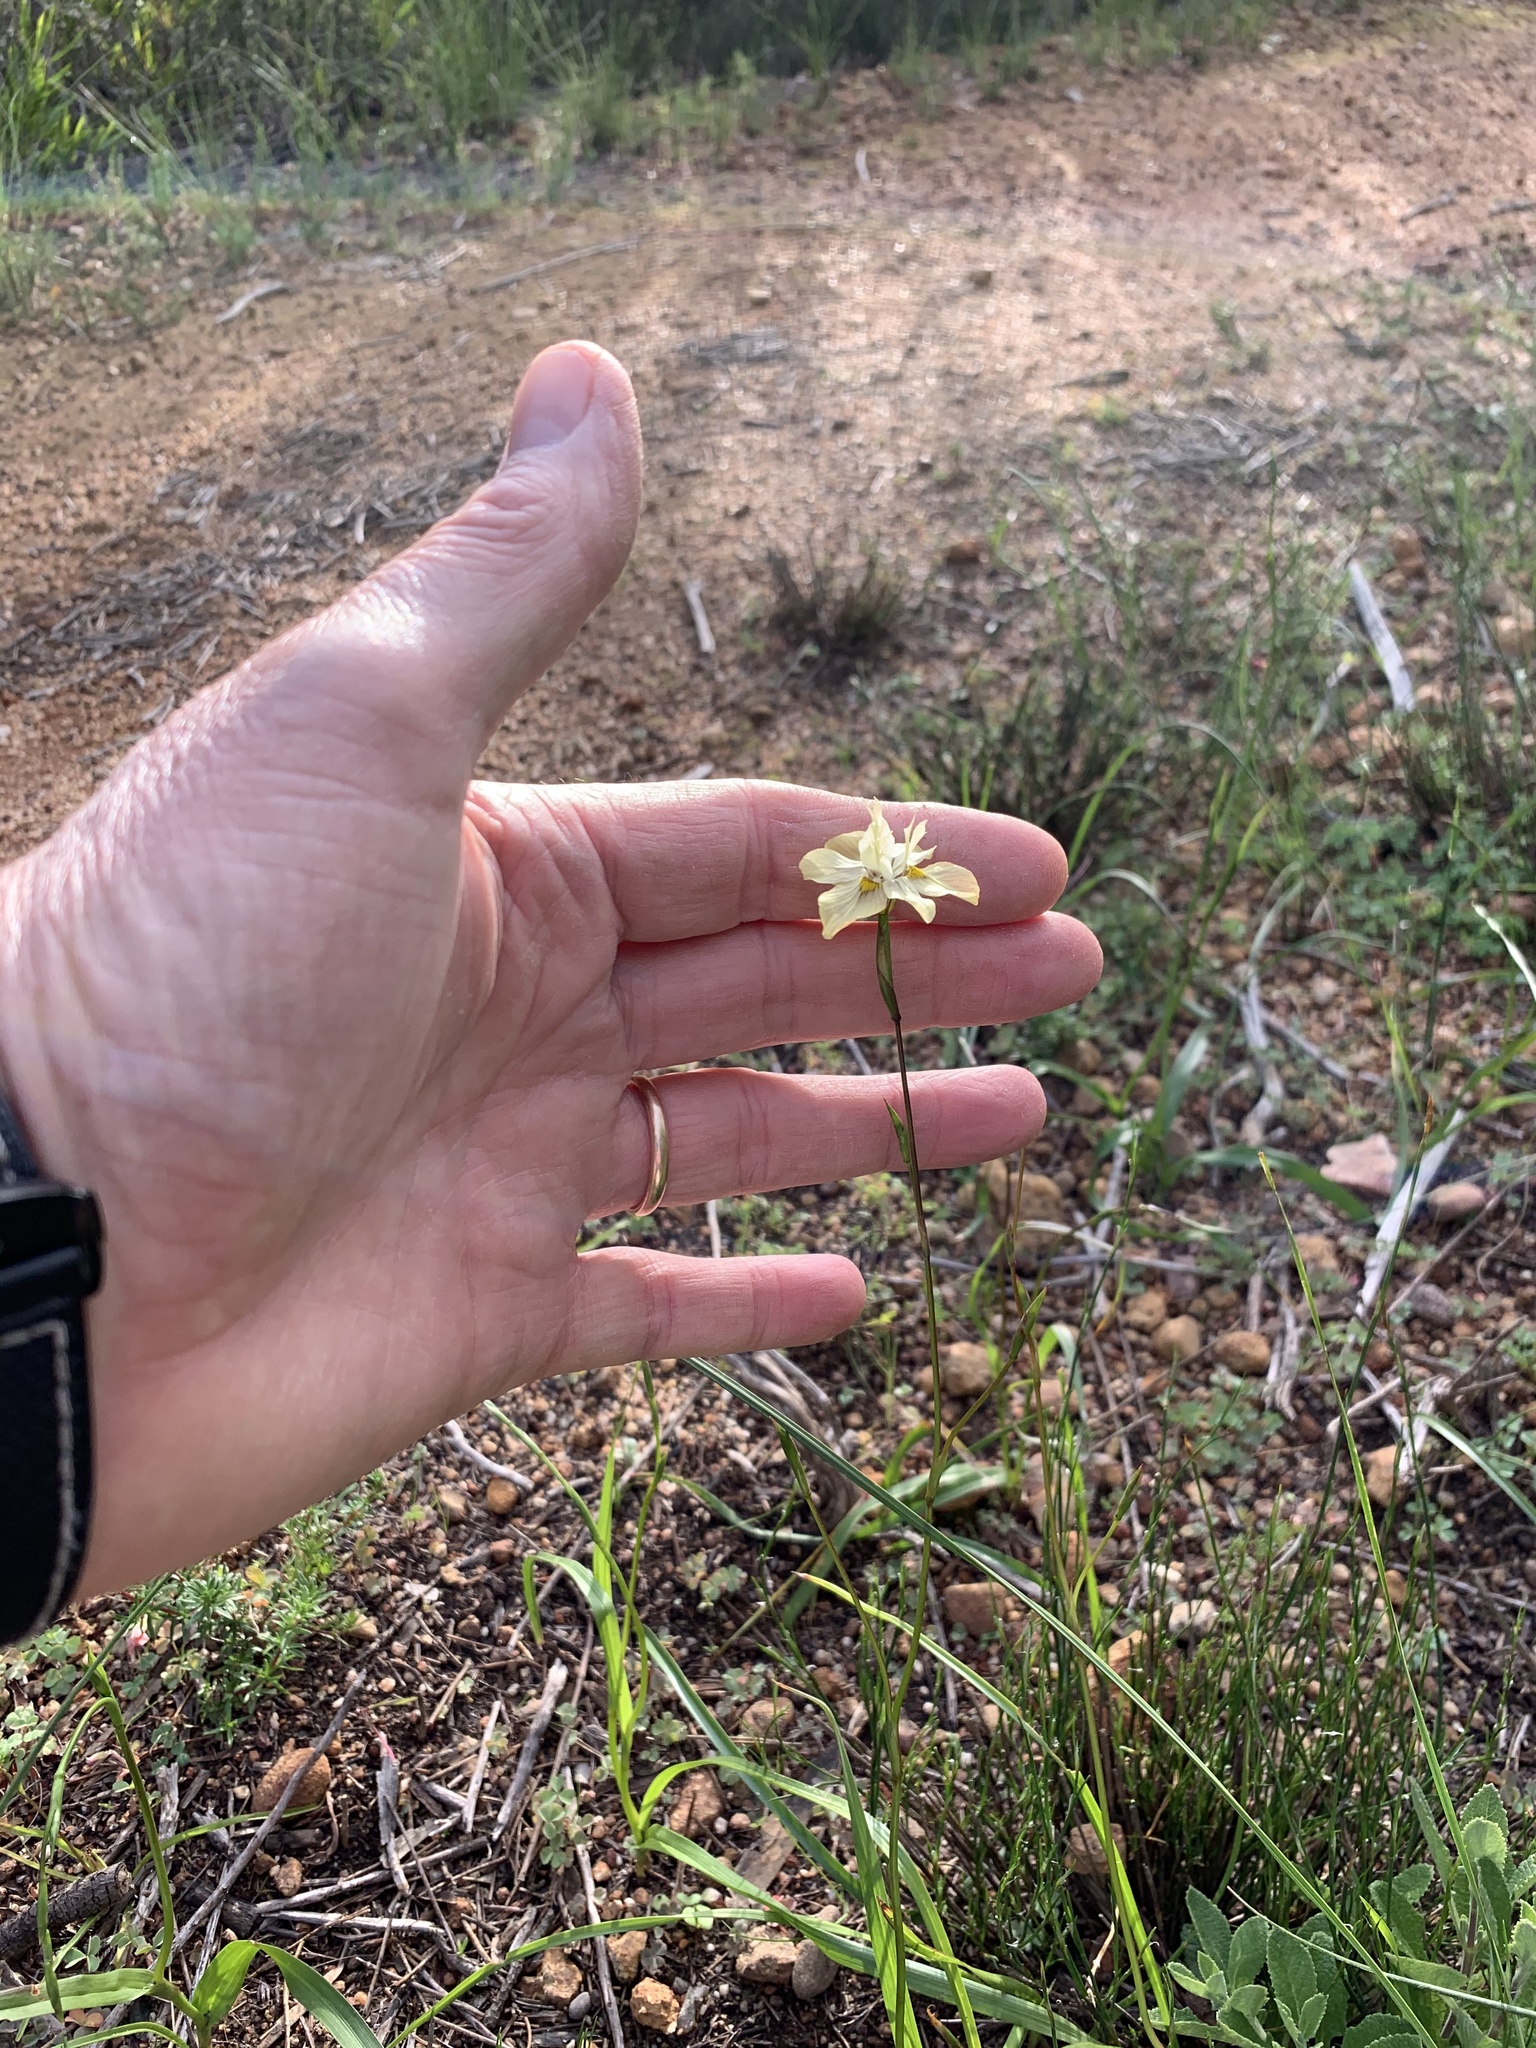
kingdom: Plantae
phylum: Tracheophyta
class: Liliopsida
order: Asparagales
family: Iridaceae
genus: Moraea
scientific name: Moraea gawleri
